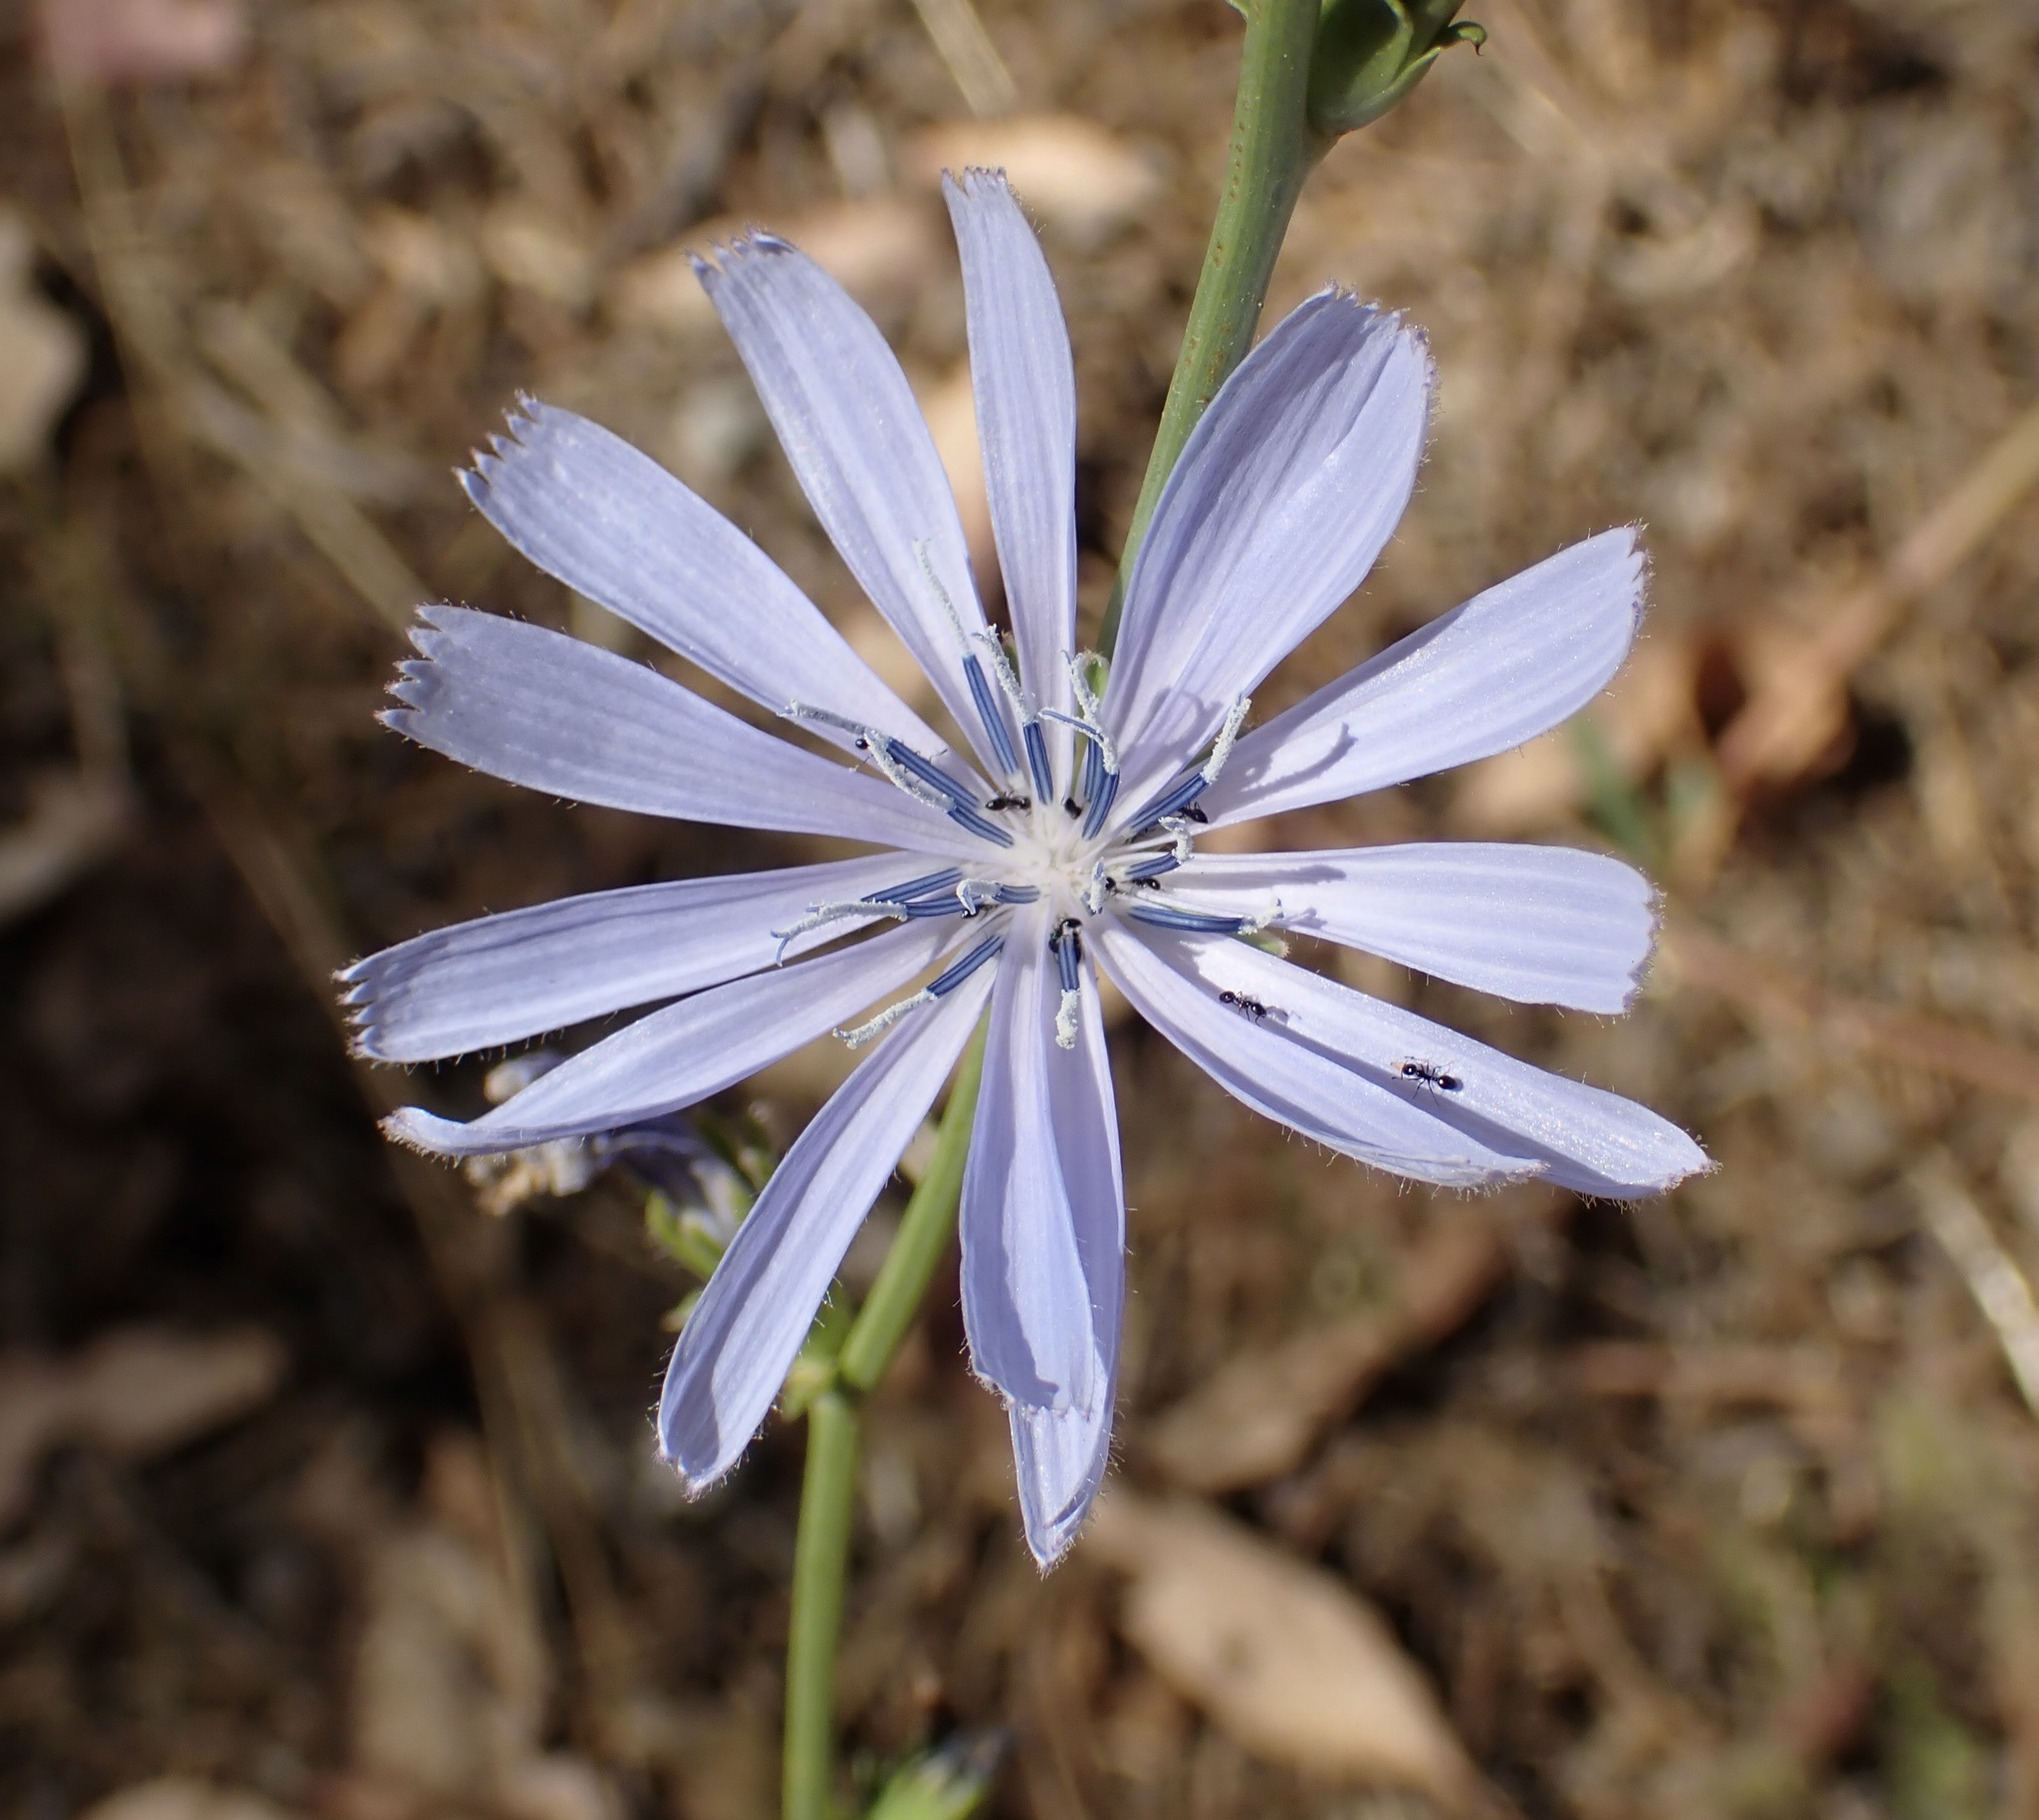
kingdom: Plantae
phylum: Tracheophyta
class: Magnoliopsida
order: Asterales
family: Asteraceae
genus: Cichorium
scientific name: Cichorium intybus
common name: Chicory
